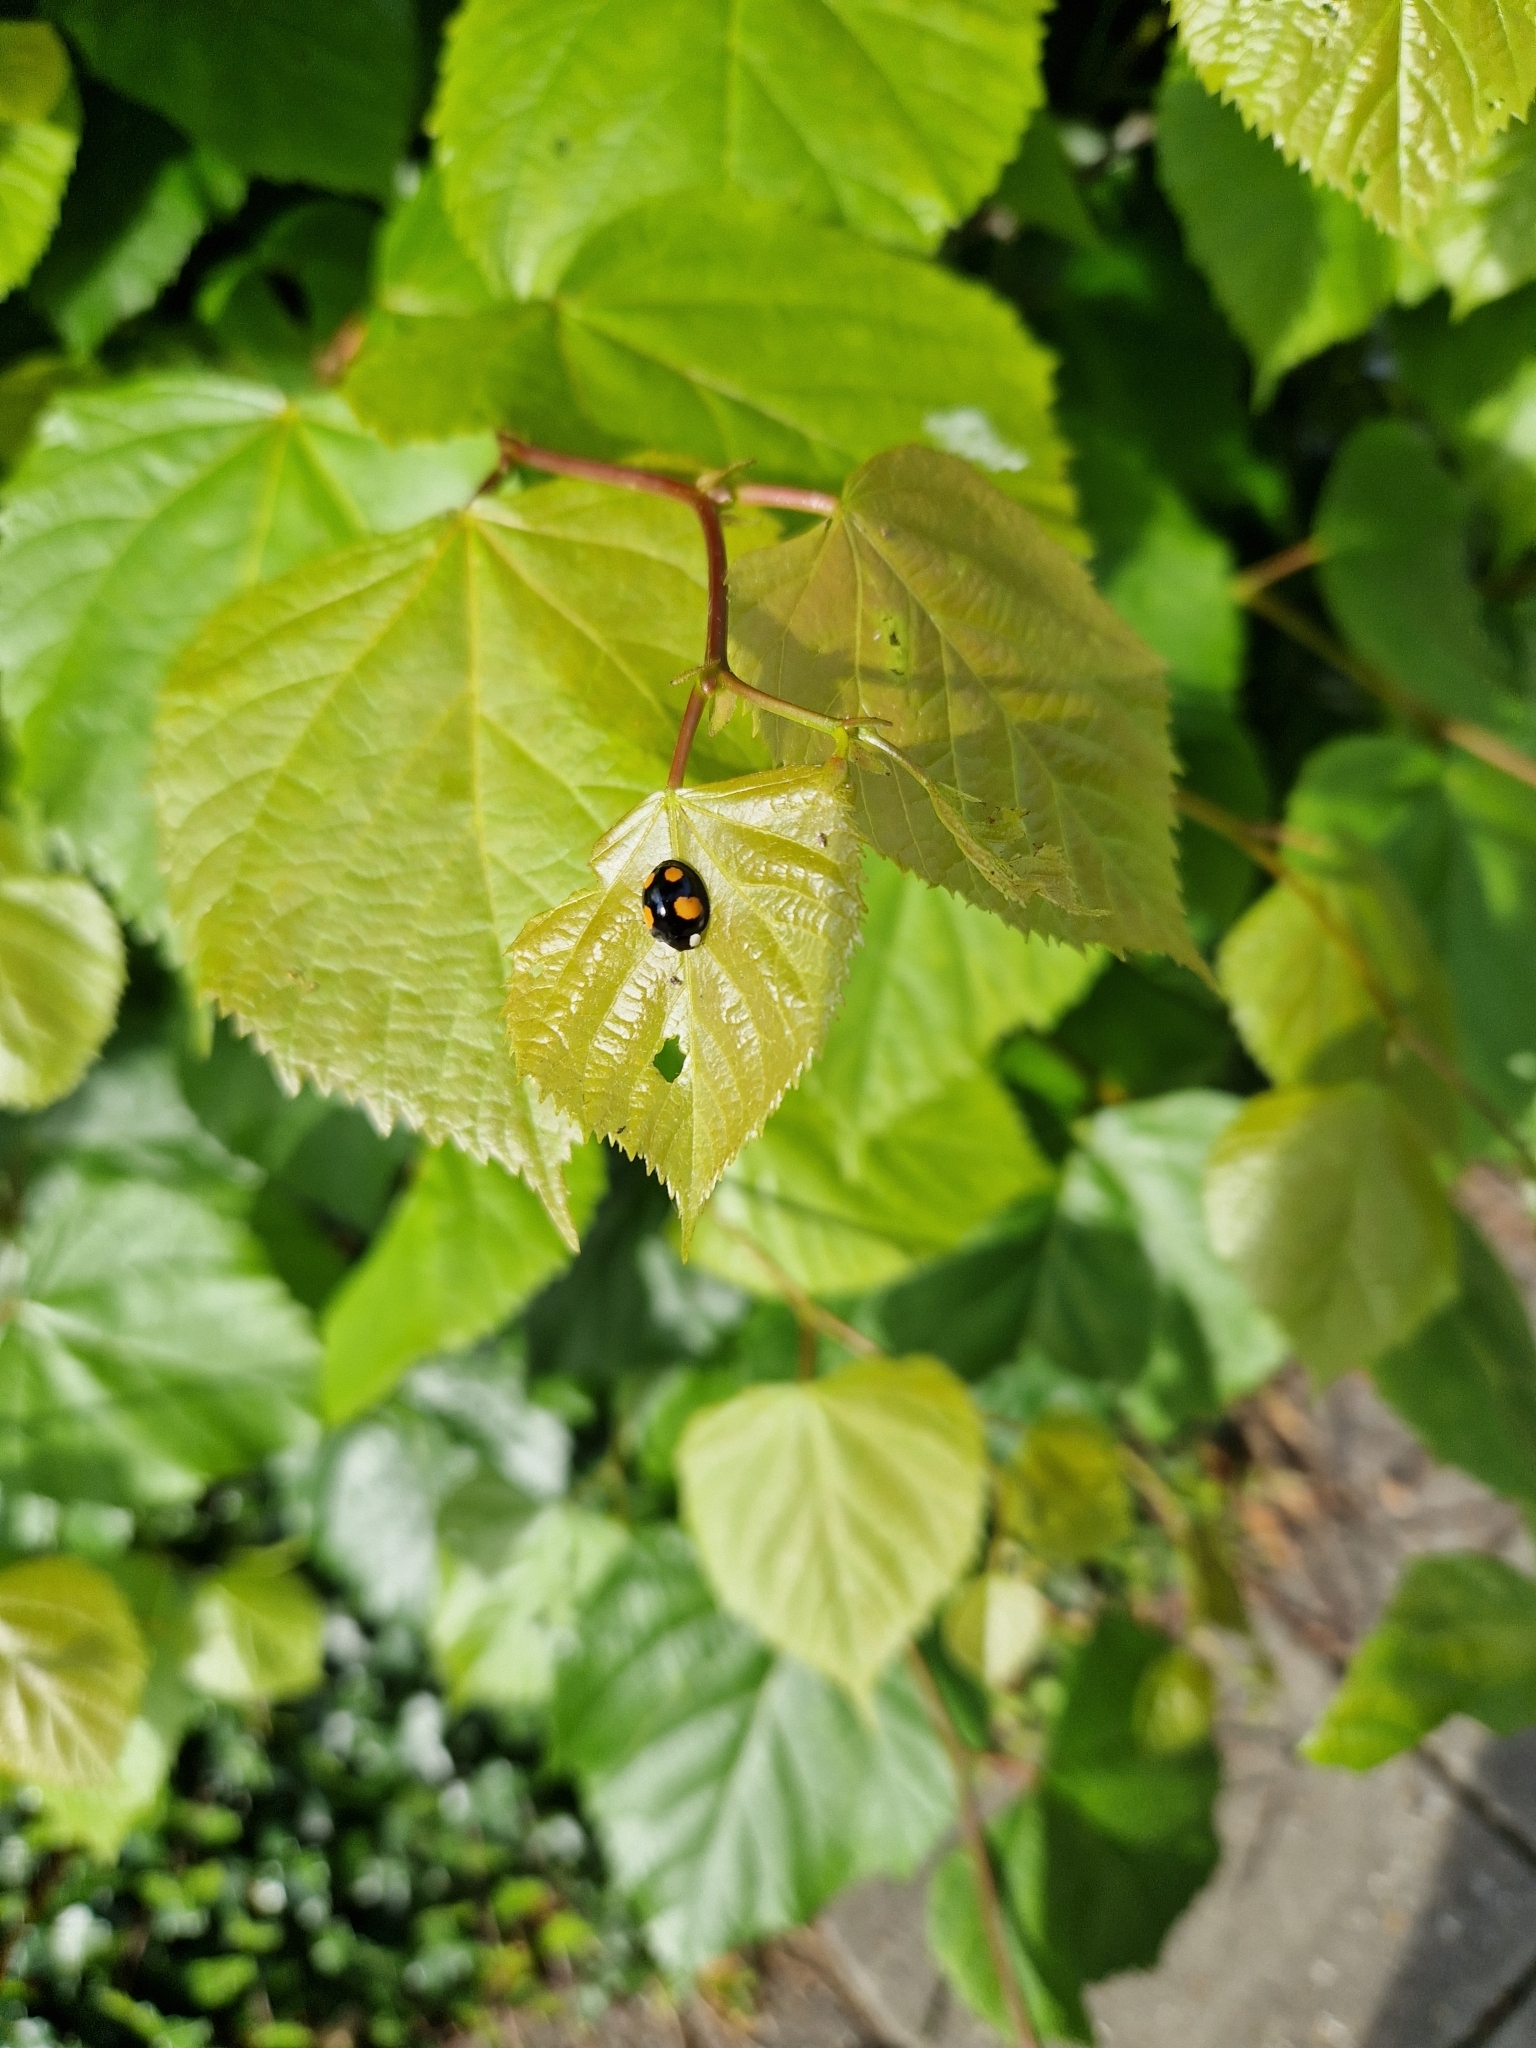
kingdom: Animalia
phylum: Arthropoda
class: Insecta
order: Coleoptera
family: Coccinellidae
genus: Harmonia
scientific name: Harmonia axyridis
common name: Harlequin ladybird
